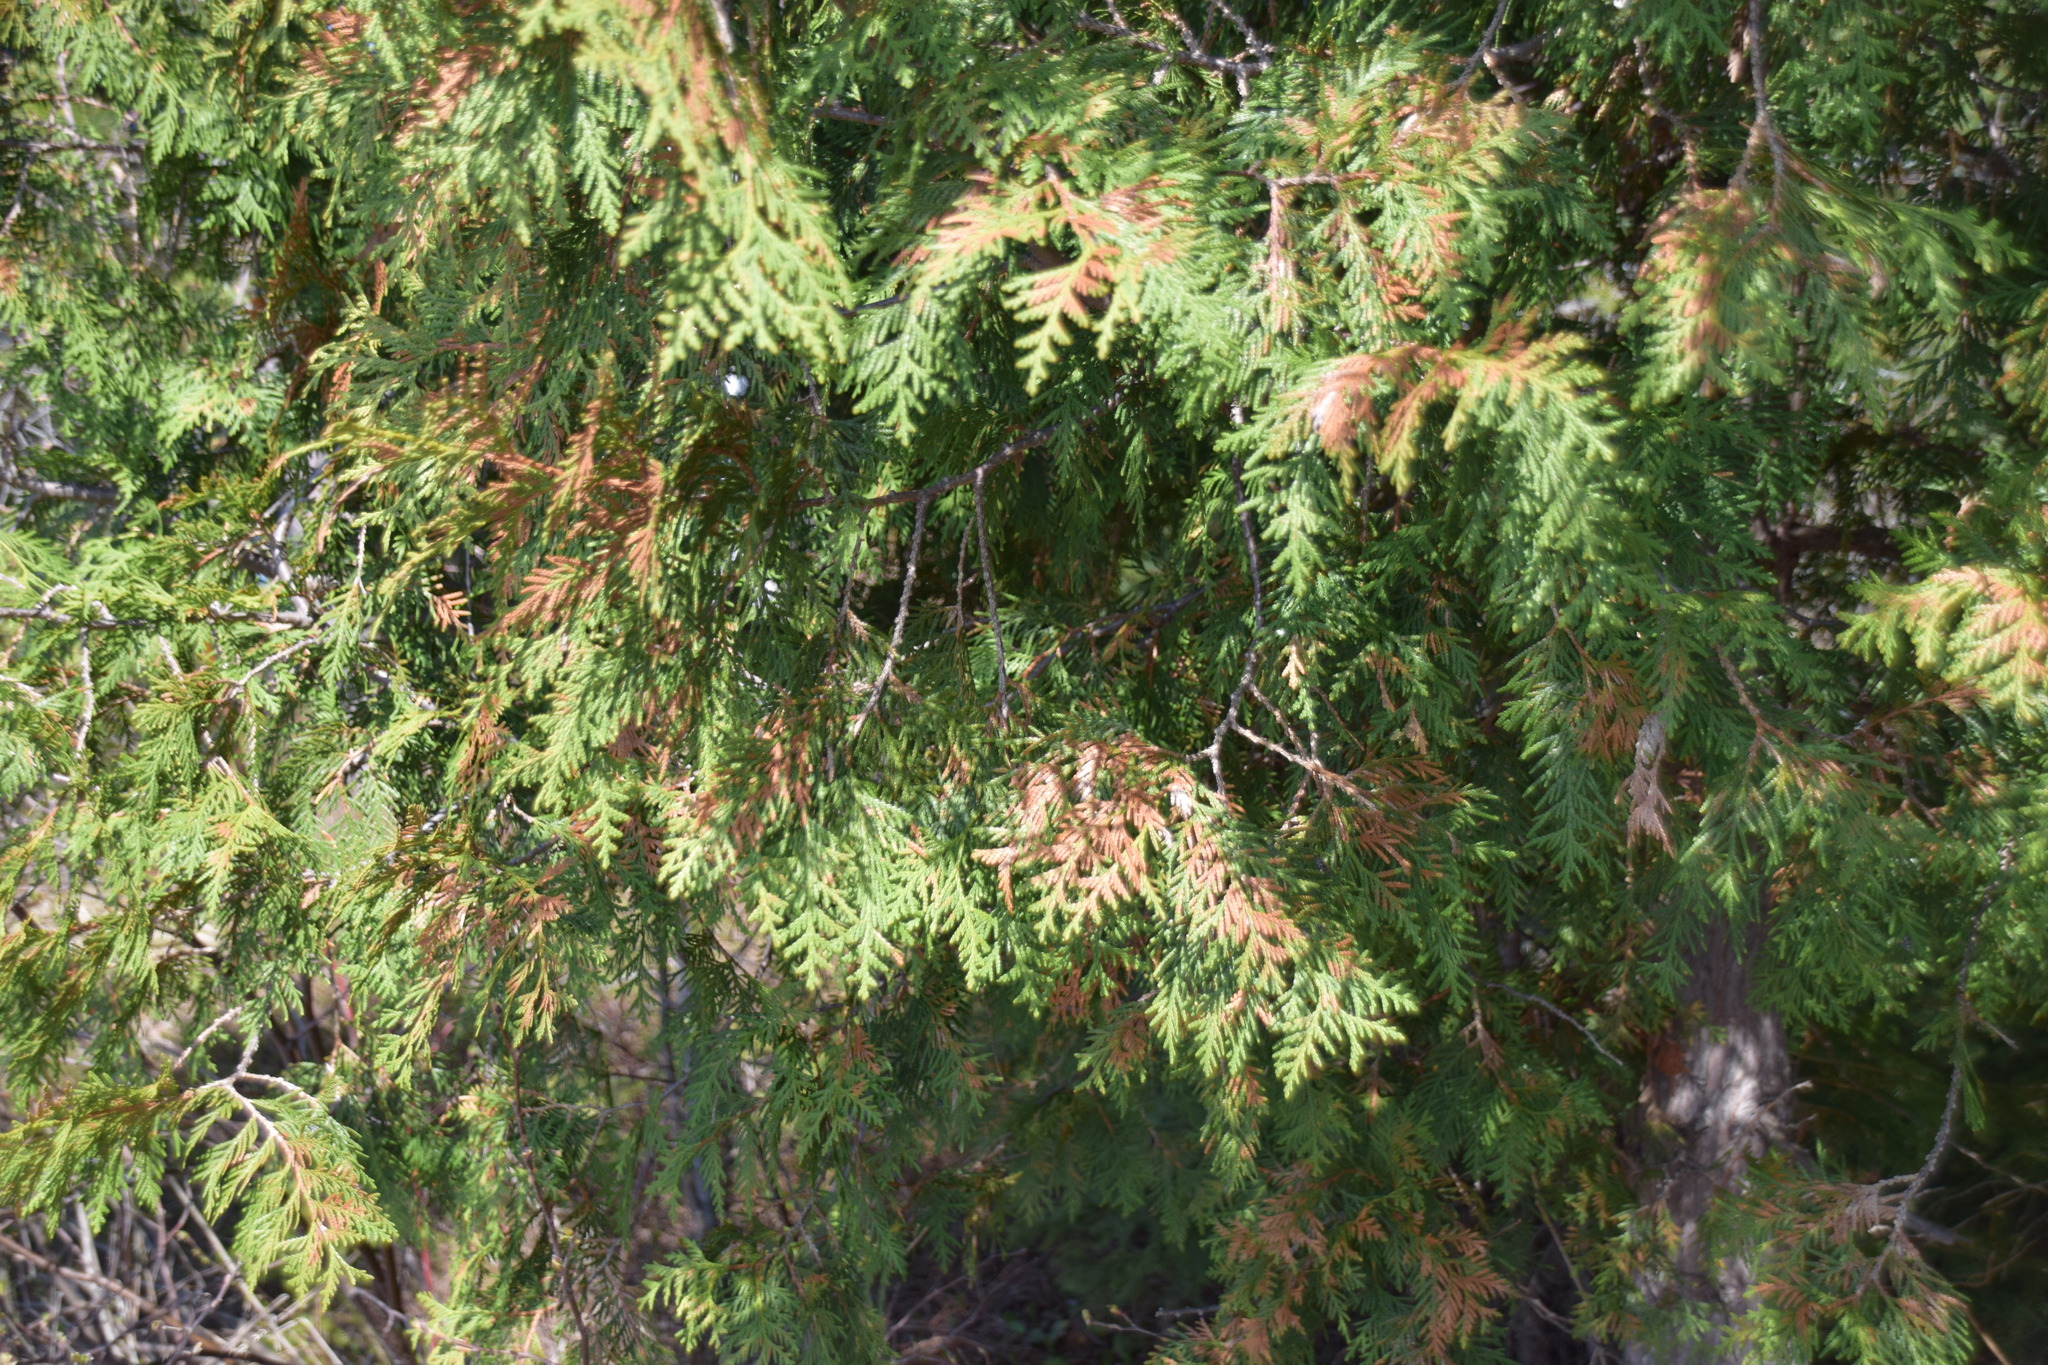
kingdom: Plantae
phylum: Tracheophyta
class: Pinopsida
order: Pinales
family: Cupressaceae
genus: Thuja
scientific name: Thuja occidentalis
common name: Northern white-cedar
